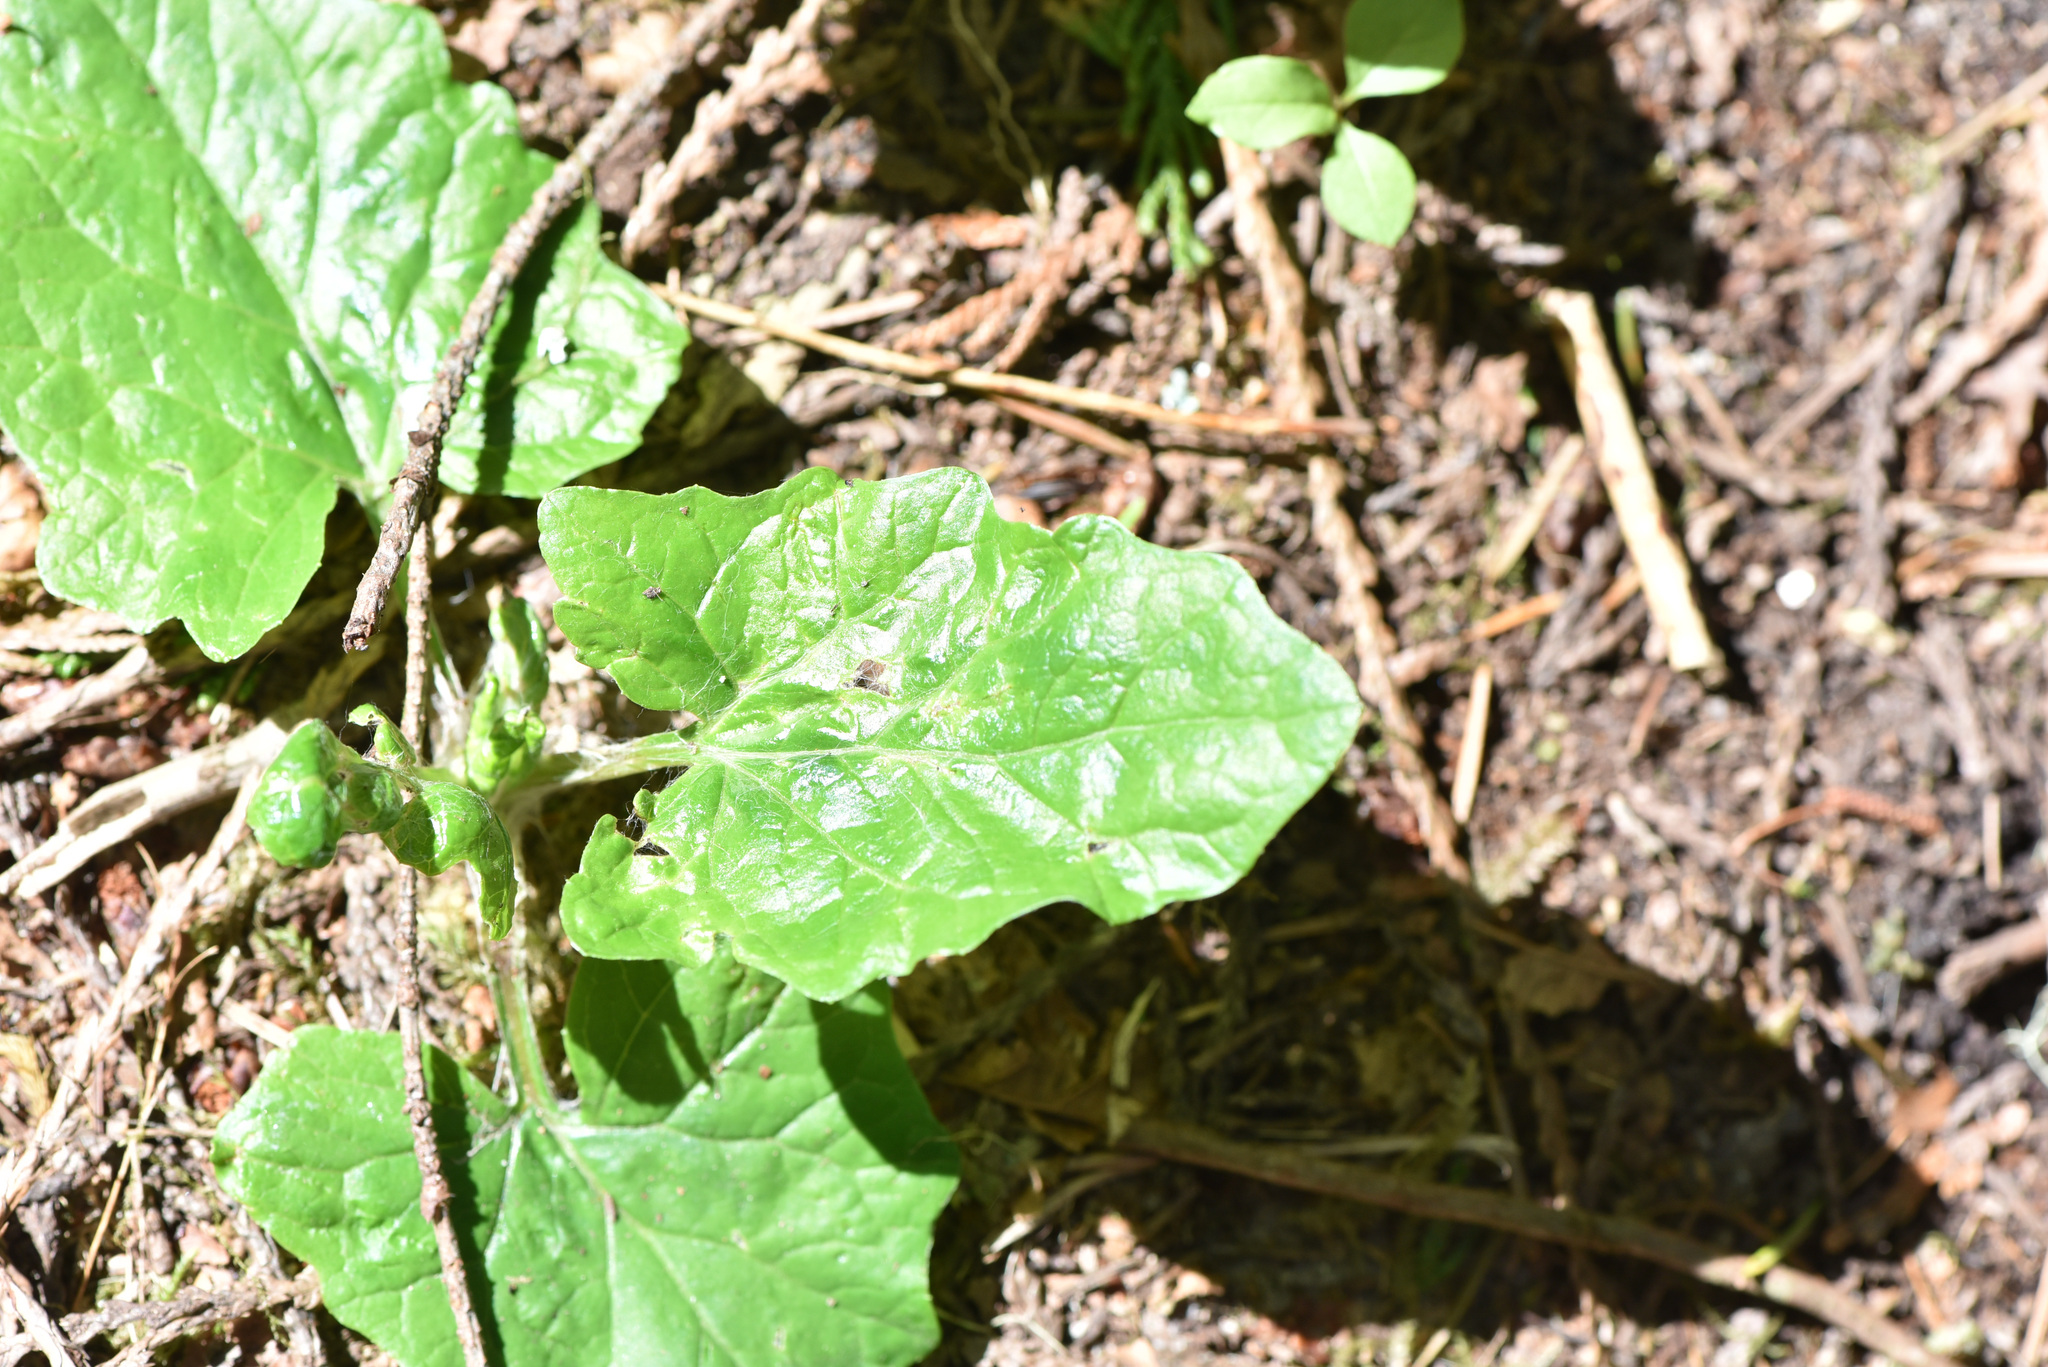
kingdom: Plantae
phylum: Tracheophyta
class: Magnoliopsida
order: Asterales
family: Asteraceae
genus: Adenocaulon
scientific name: Adenocaulon bicolor
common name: Trailplant
